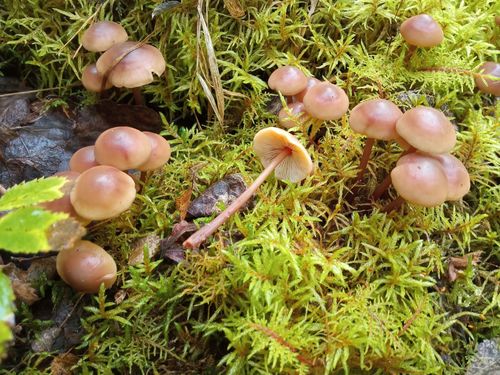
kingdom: Fungi
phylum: Basidiomycota
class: Agaricomycetes
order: Agaricales
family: Omphalotaceae
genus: Gymnopus
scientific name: Gymnopus
